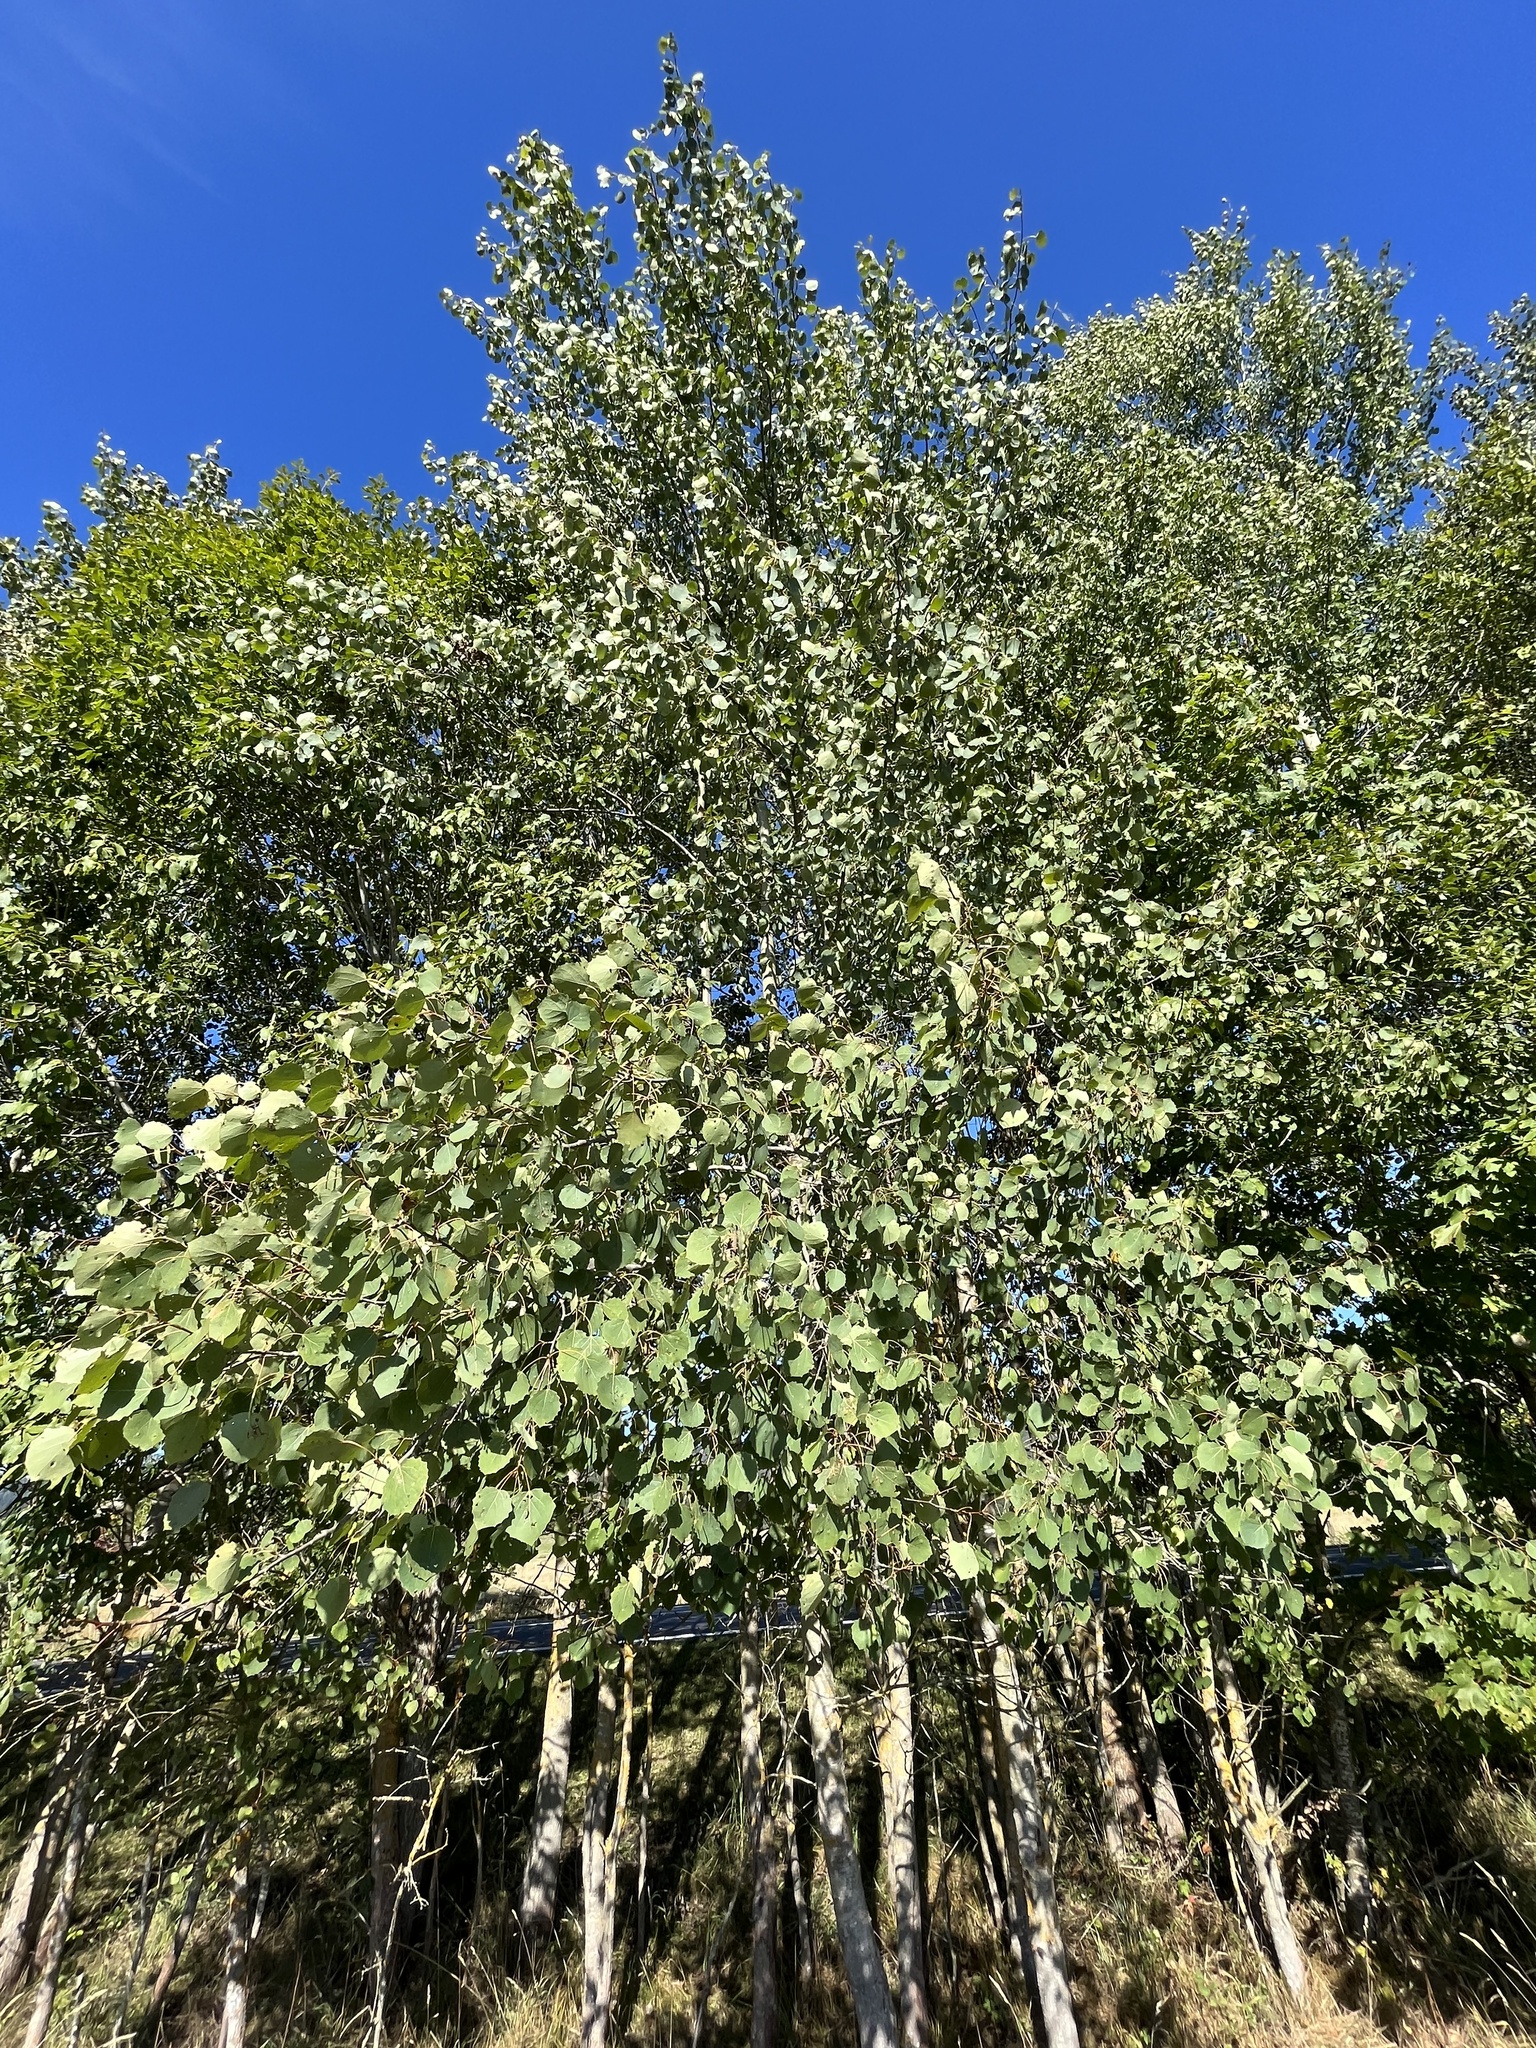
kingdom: Plantae
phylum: Tracheophyta
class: Magnoliopsida
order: Malpighiales
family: Salicaceae
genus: Populus
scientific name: Populus tremula
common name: European aspen
